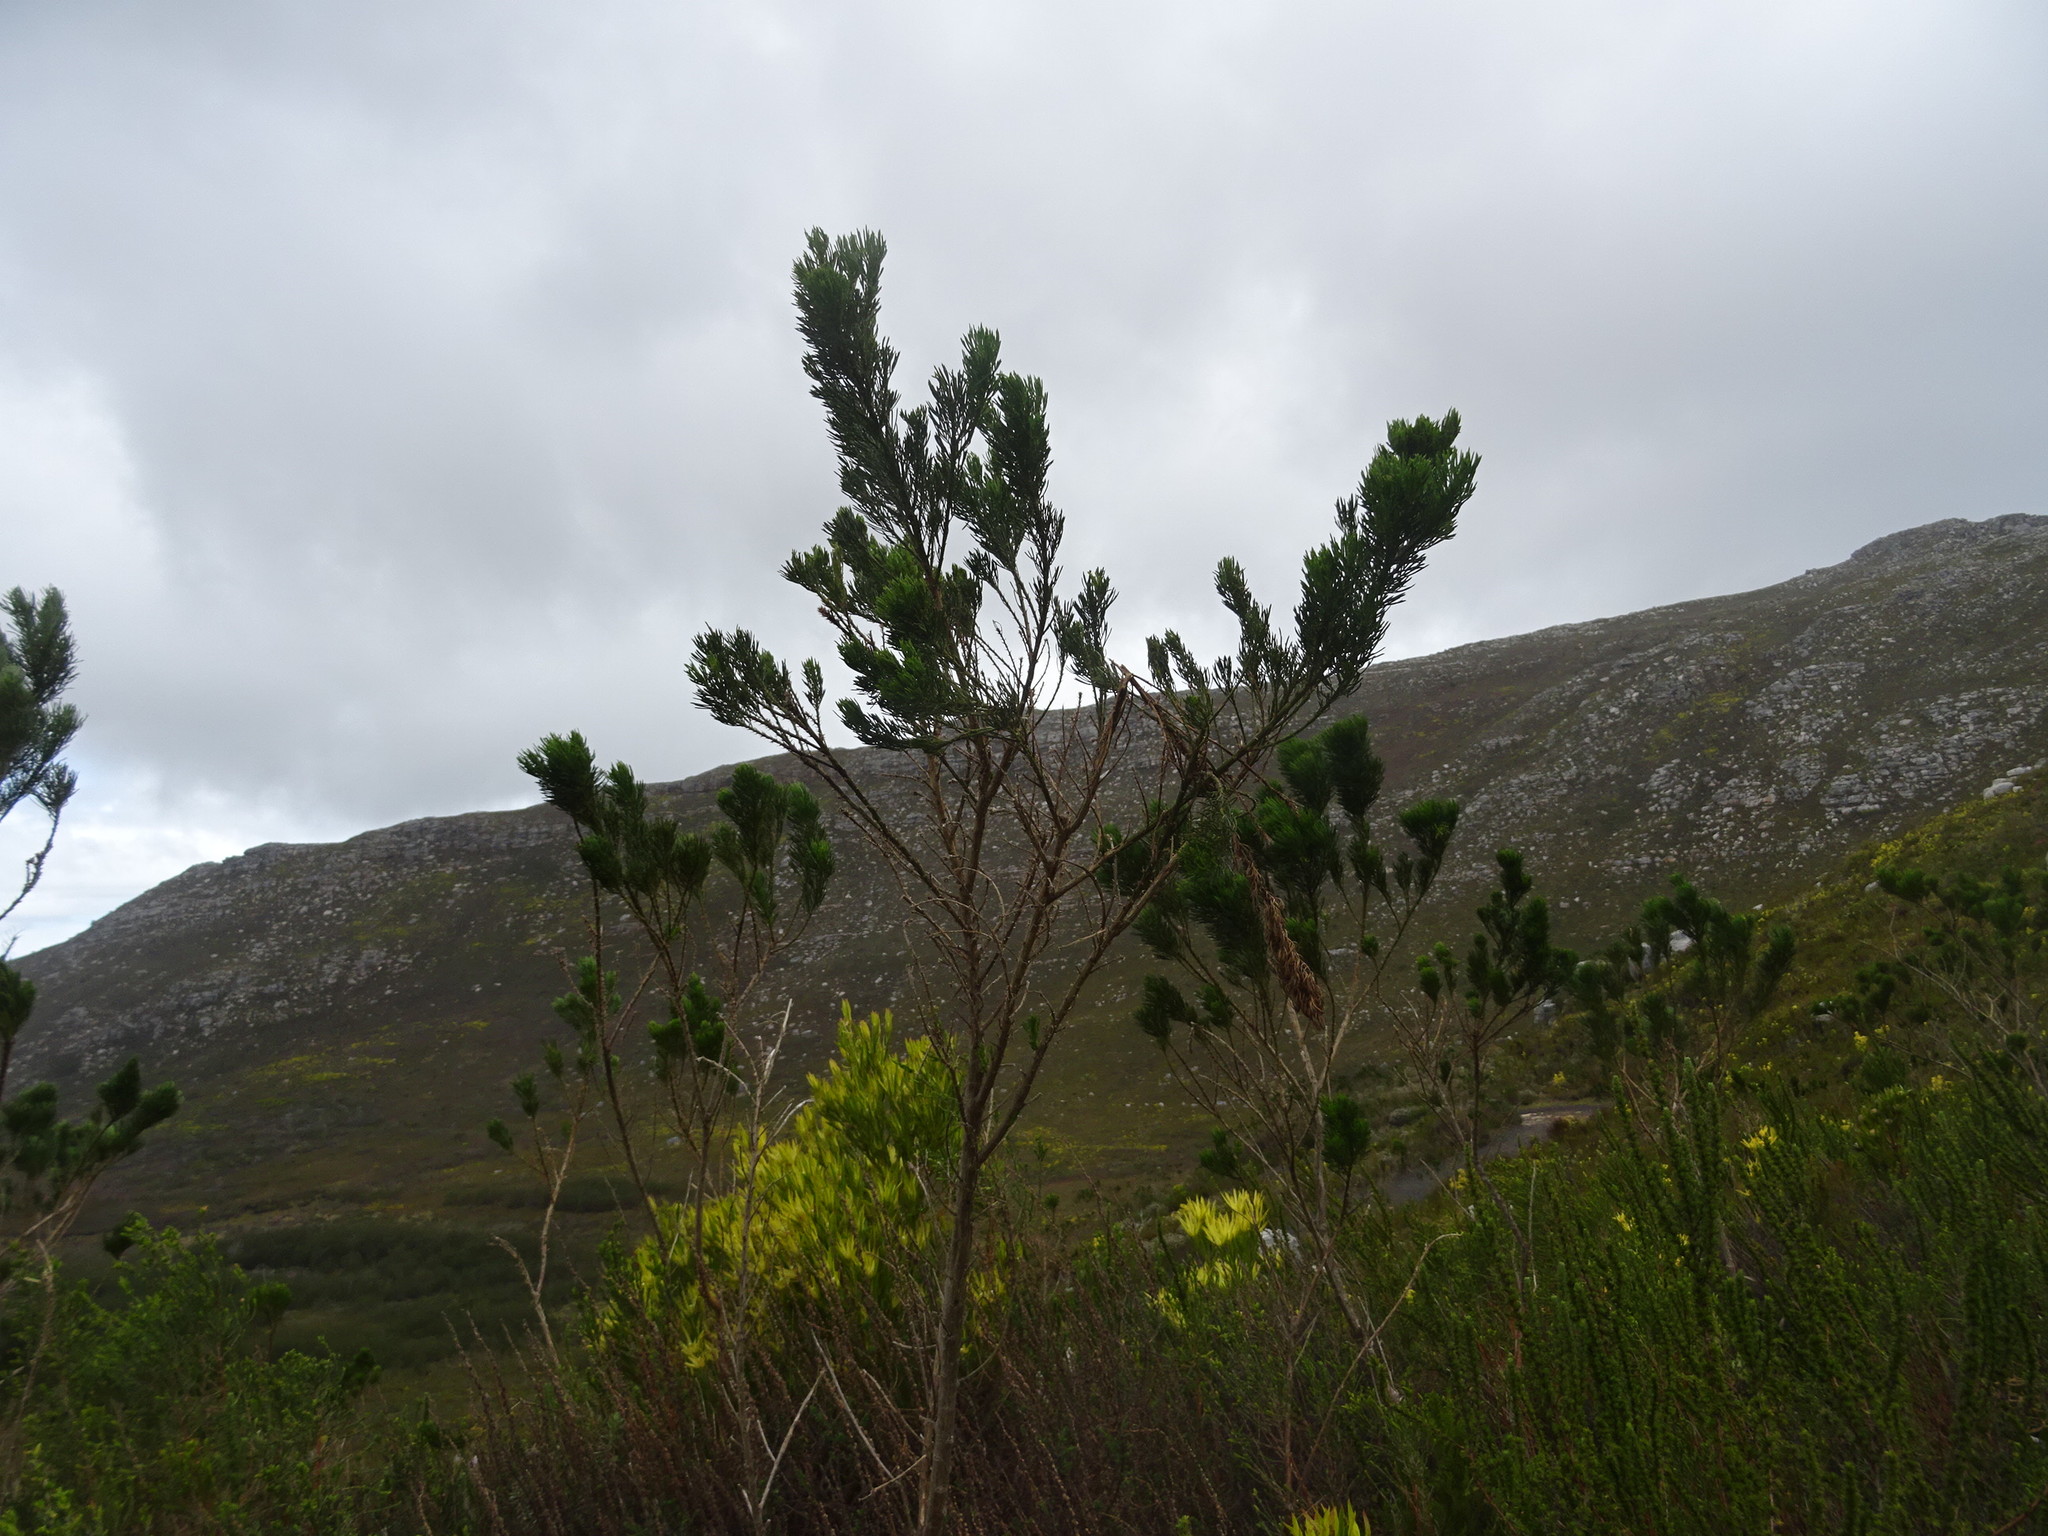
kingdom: Plantae
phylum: Tracheophyta
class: Magnoliopsida
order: Fabales
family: Fabaceae
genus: Psoralea
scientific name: Psoralea pinnata
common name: African scurfpea
